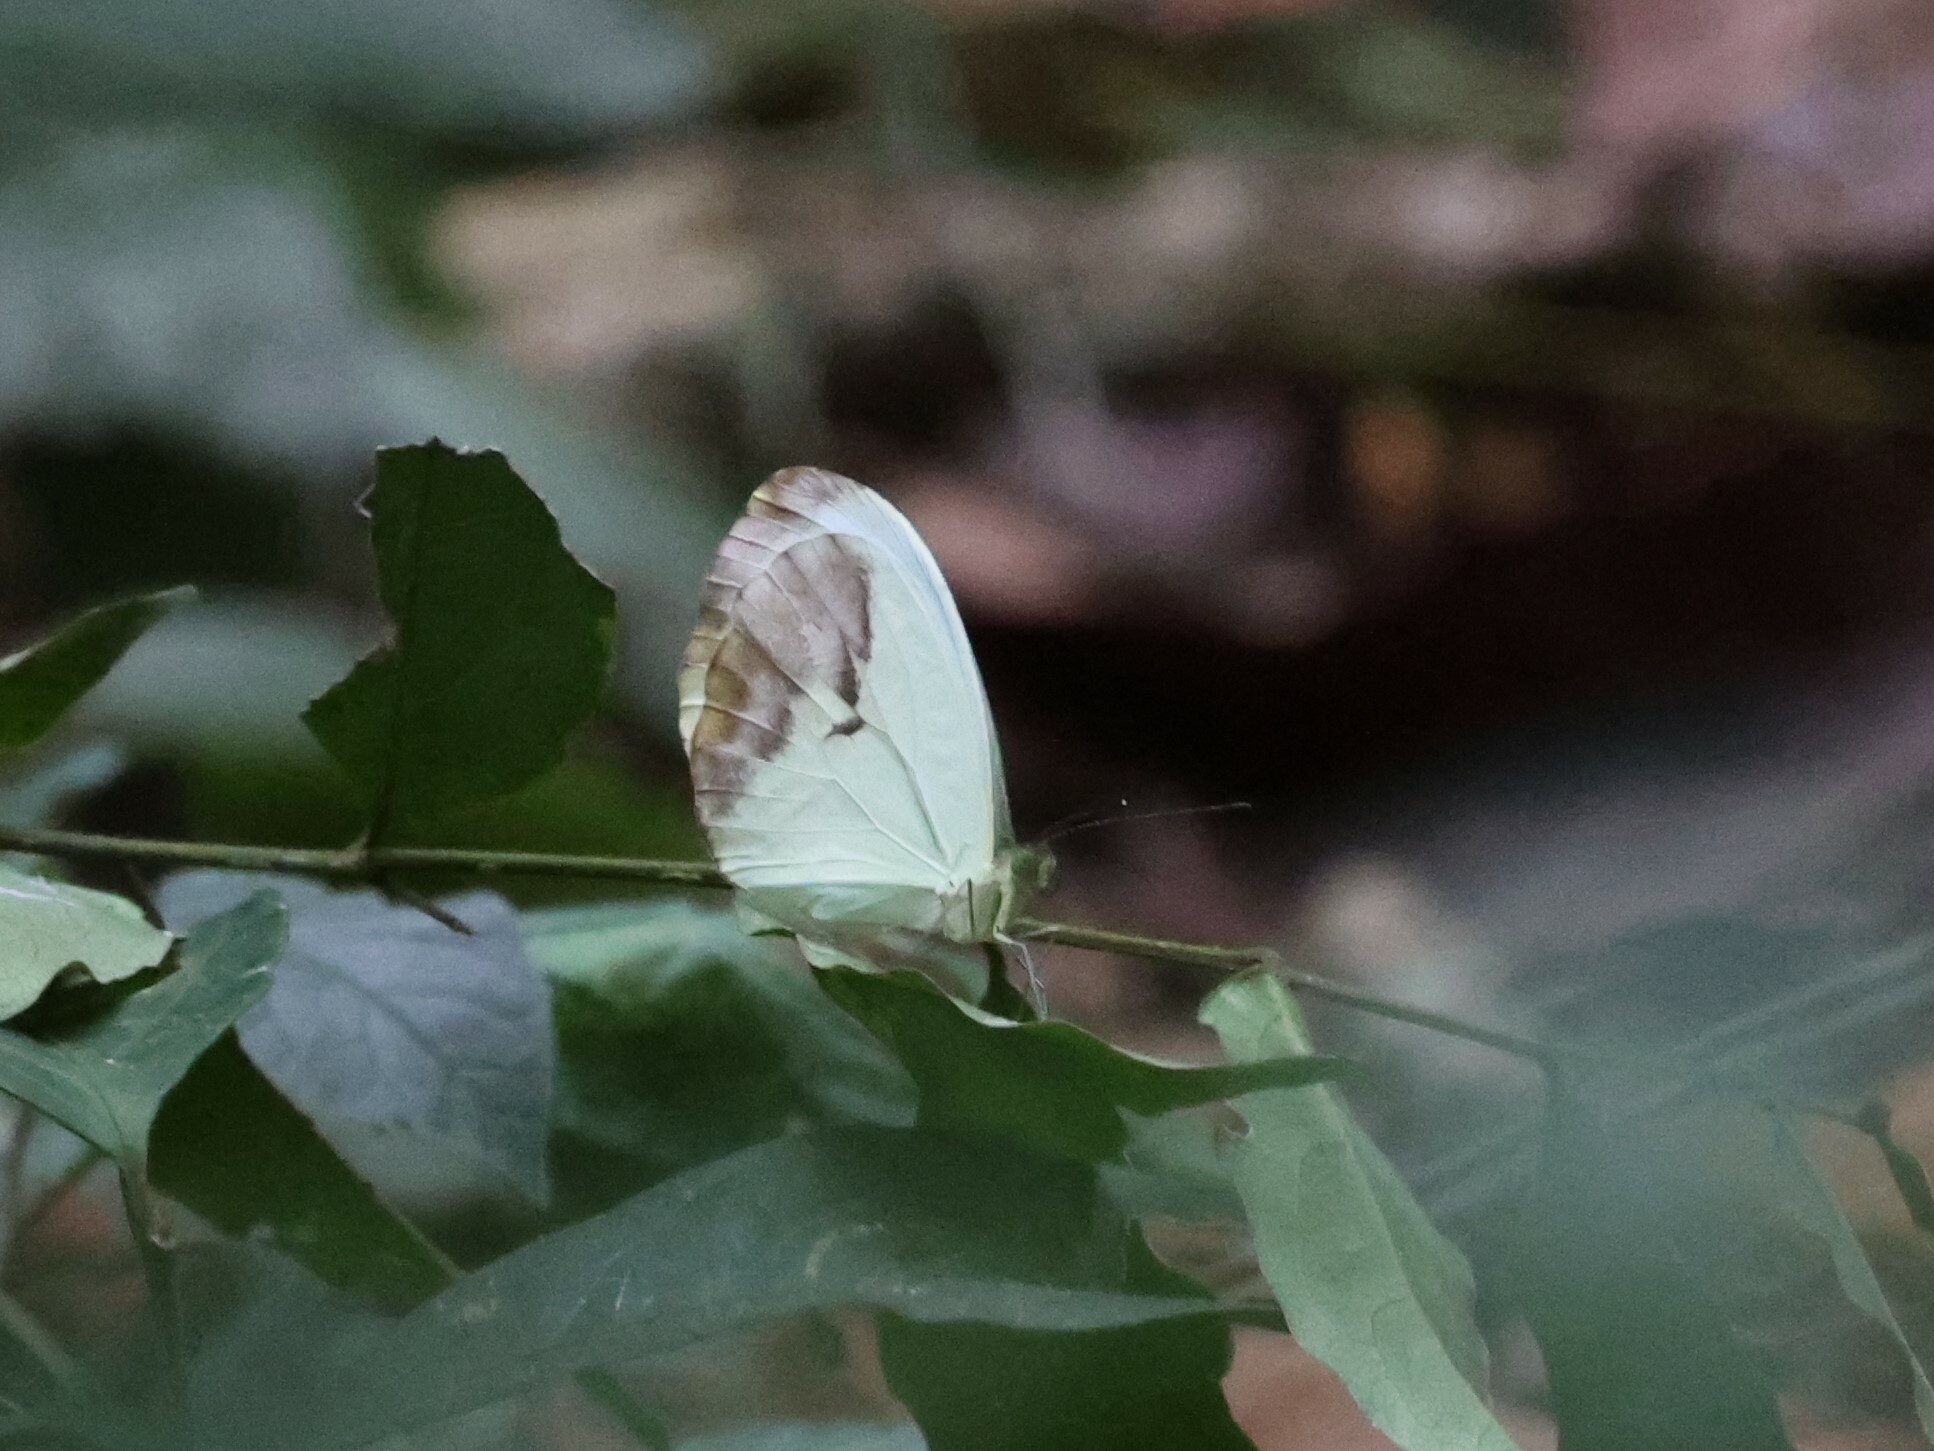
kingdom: Animalia
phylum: Arthropoda
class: Insecta
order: Lepidoptera
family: Pieridae
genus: Nepheronia
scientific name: Nepheronia pharis
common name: Round-winged vagrant
